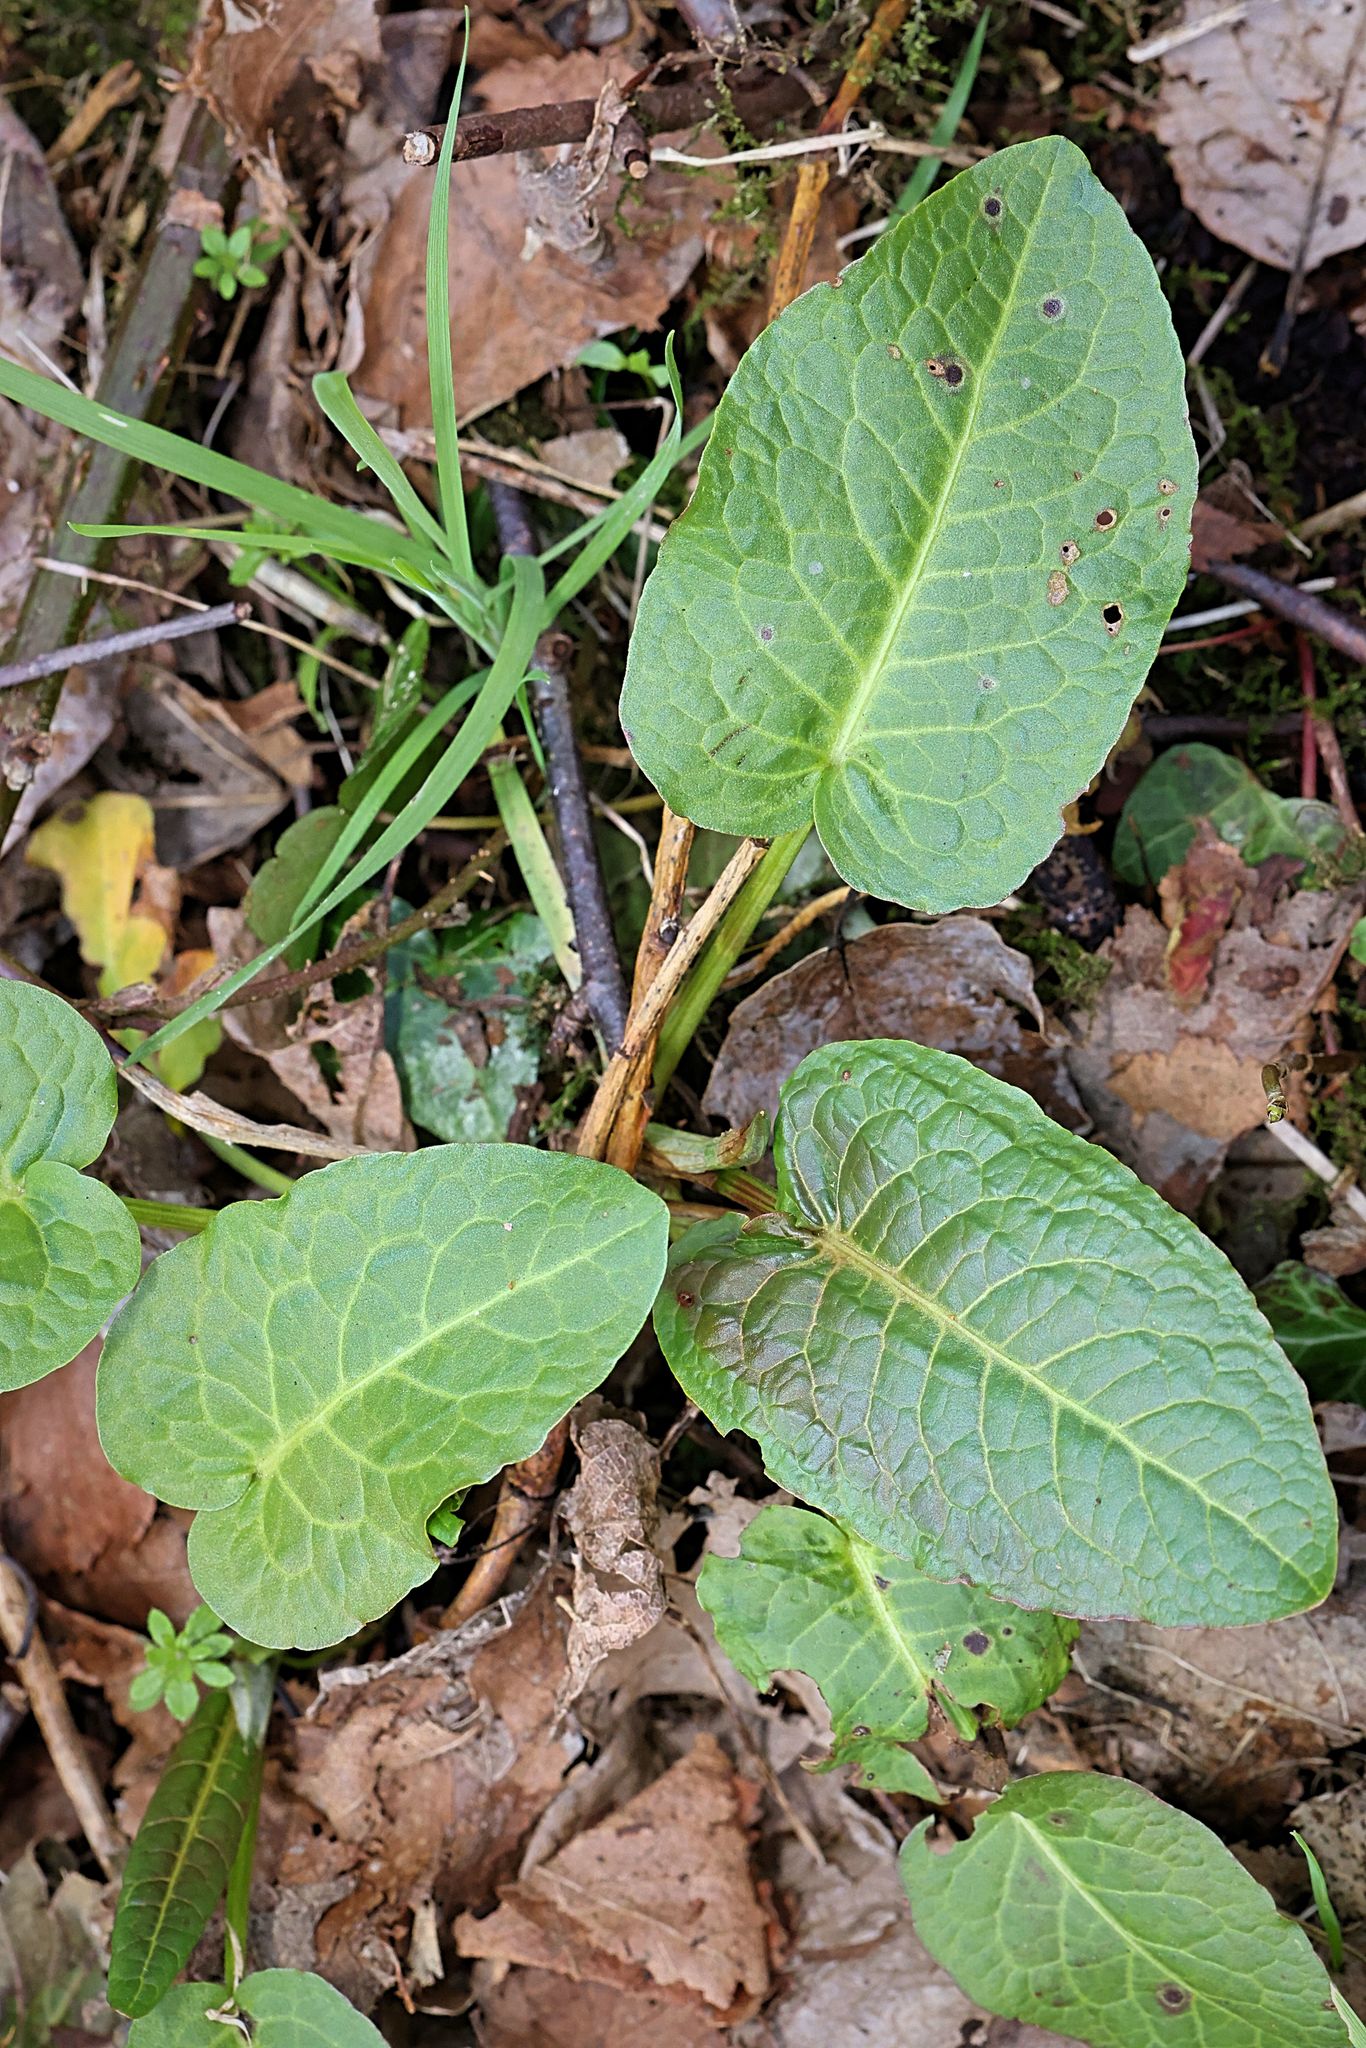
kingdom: Plantae
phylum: Tracheophyta
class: Magnoliopsida
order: Caryophyllales
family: Polygonaceae
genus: Rumex
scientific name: Rumex obtusifolius
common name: Bitter dock
